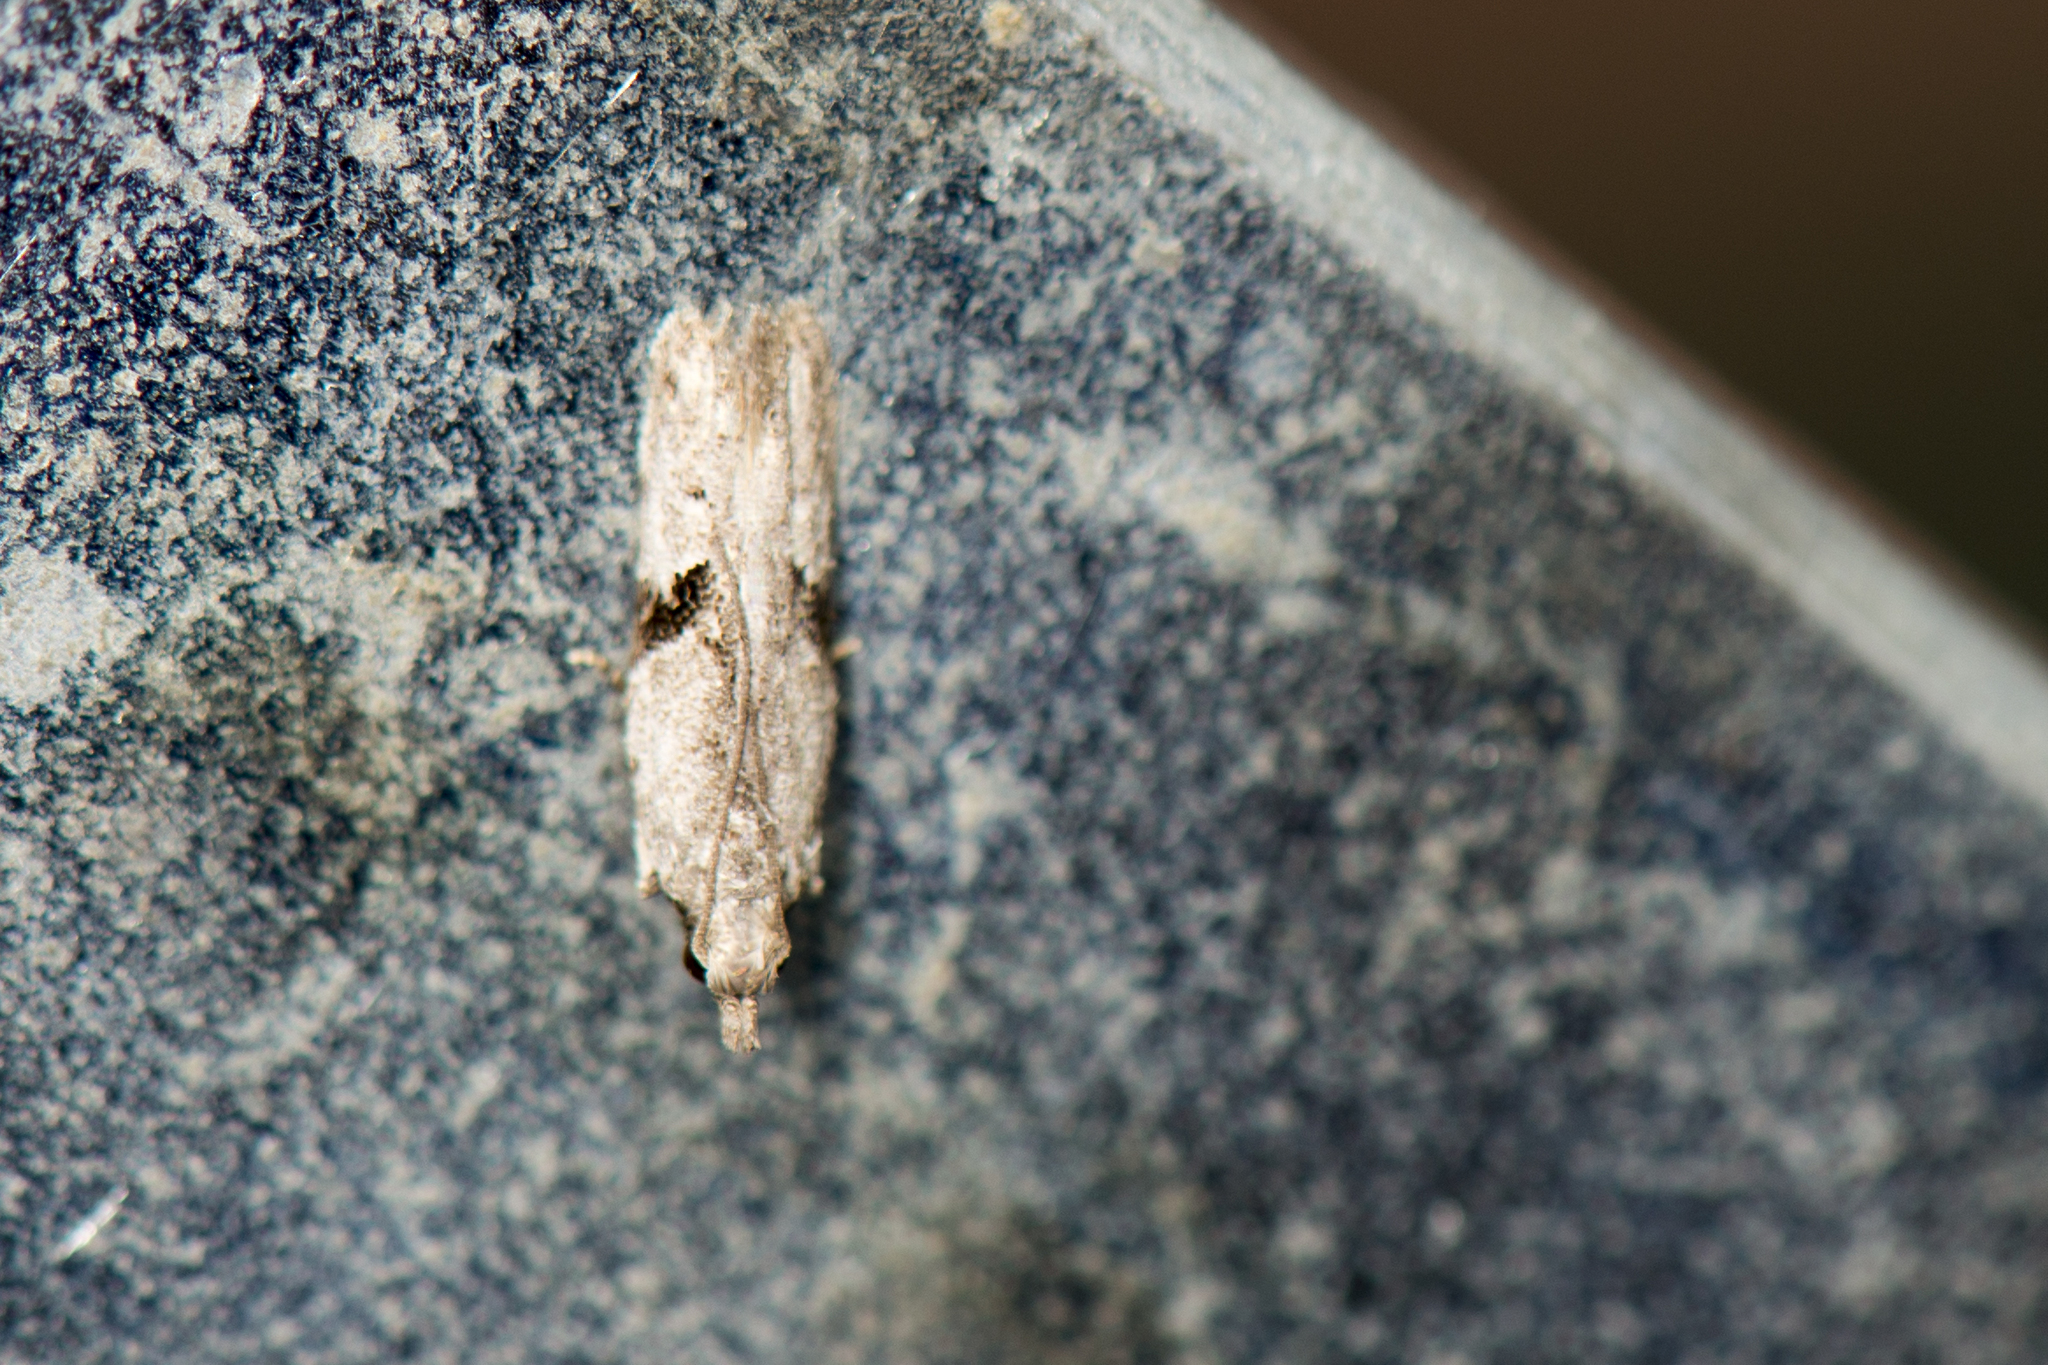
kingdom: Animalia
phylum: Arthropoda
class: Insecta
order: Lepidoptera
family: Gelechiidae
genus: Anarsia
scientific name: Anarsia isogona
